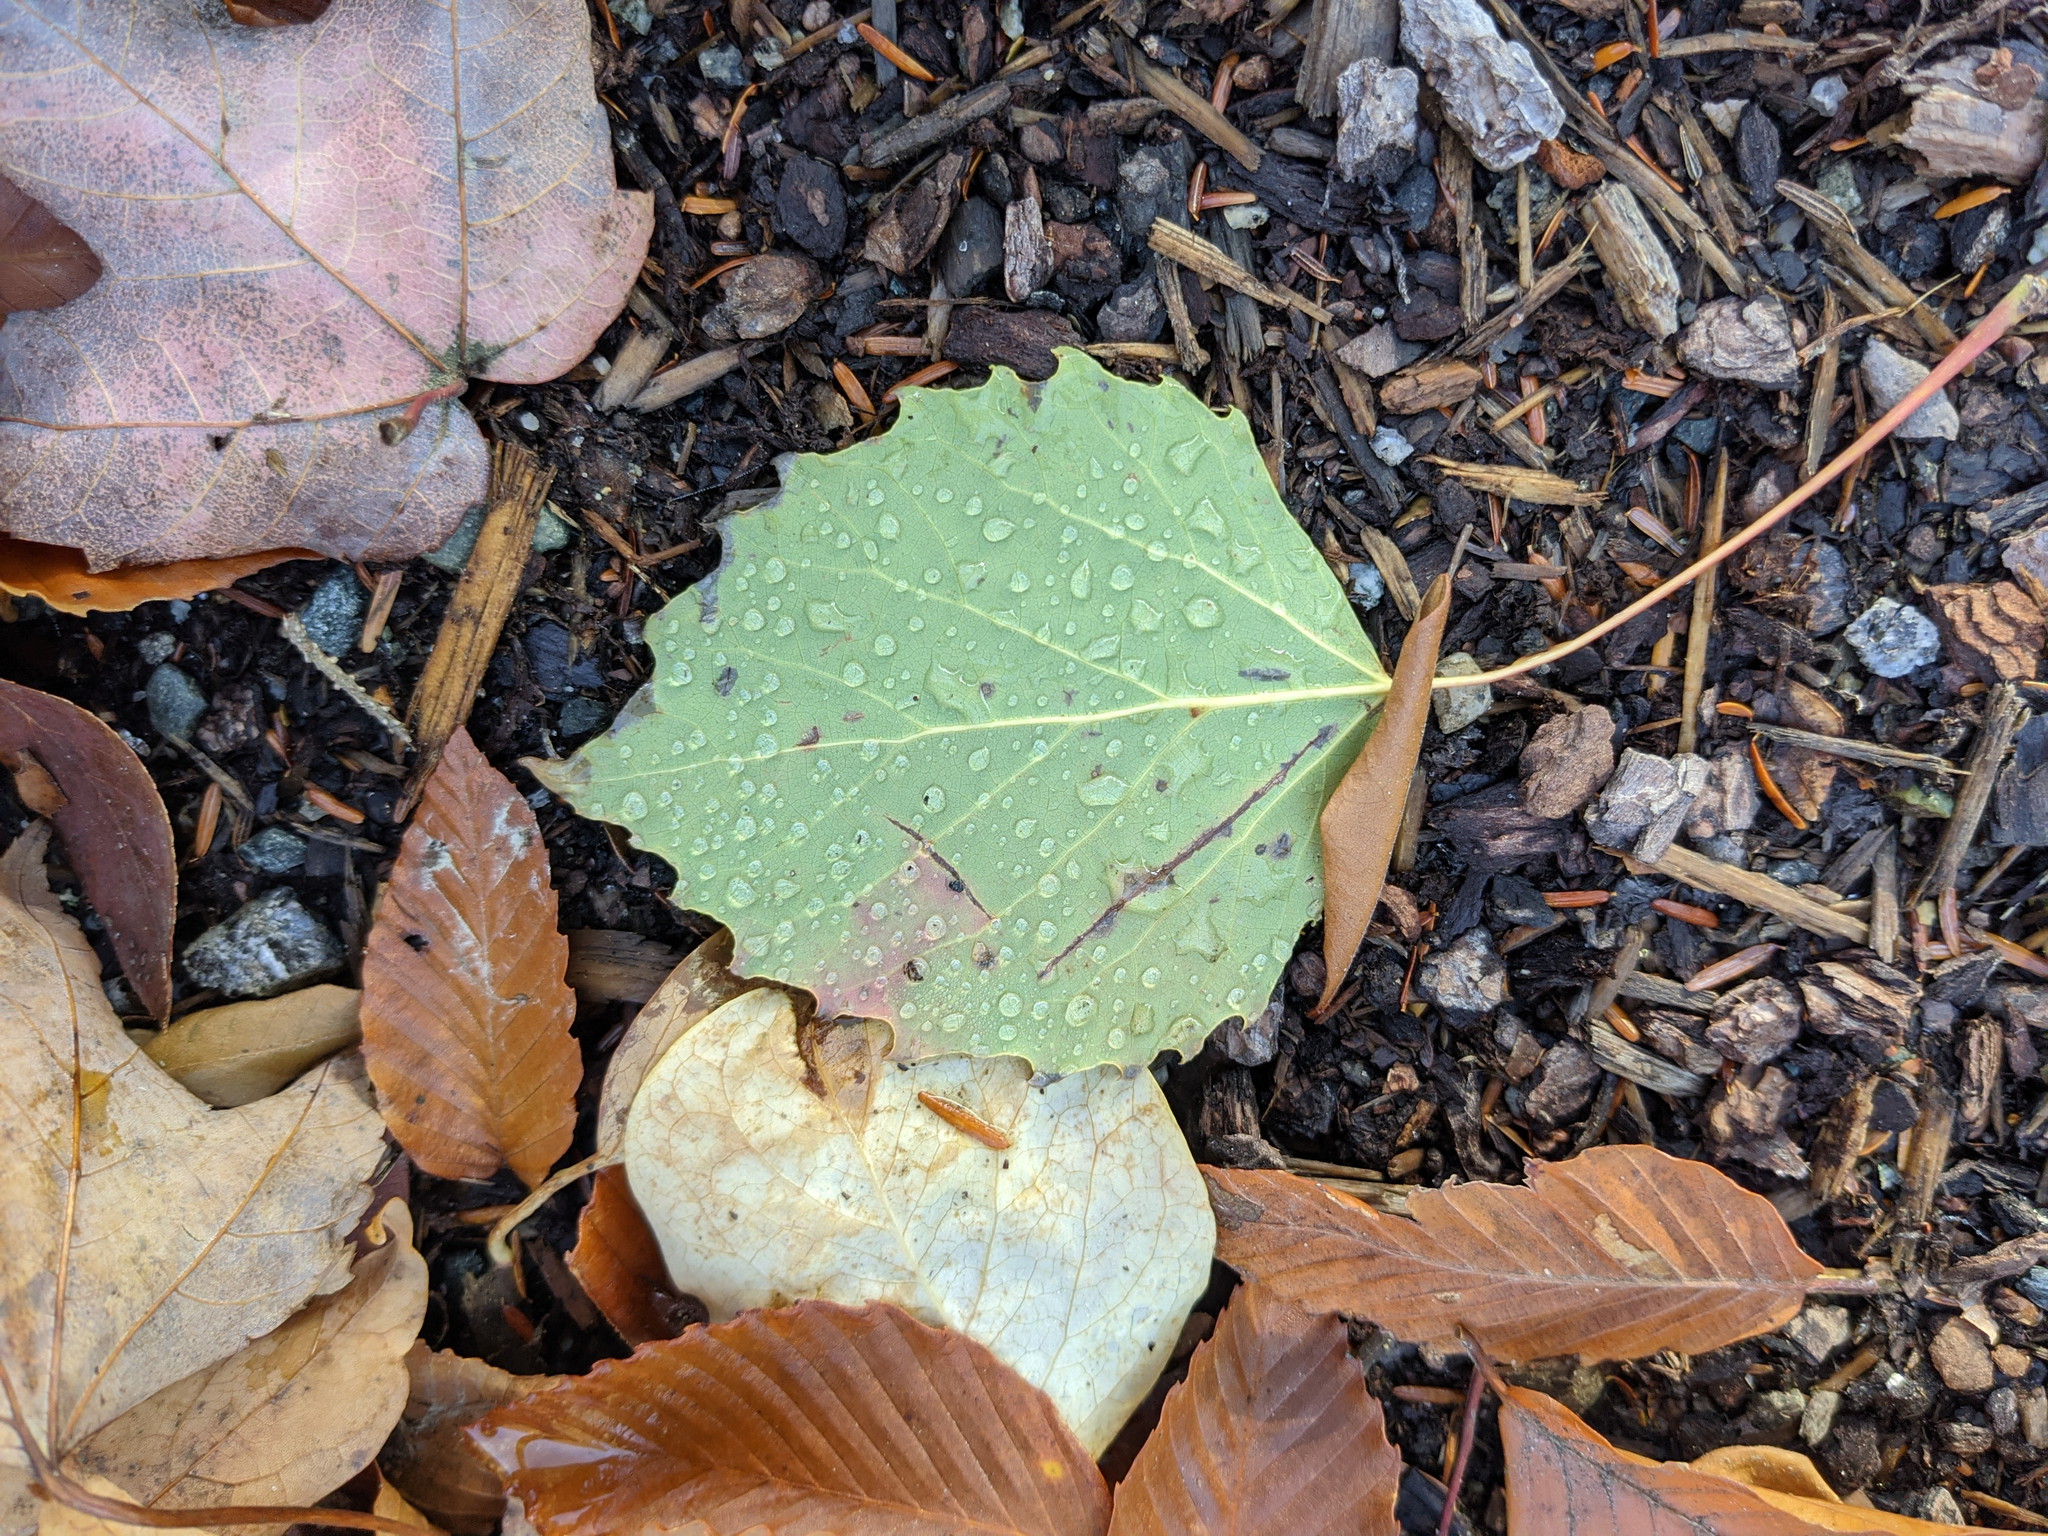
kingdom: Plantae
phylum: Tracheophyta
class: Magnoliopsida
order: Malpighiales
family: Salicaceae
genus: Populus
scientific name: Populus grandidentata
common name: Bigtooth aspen
